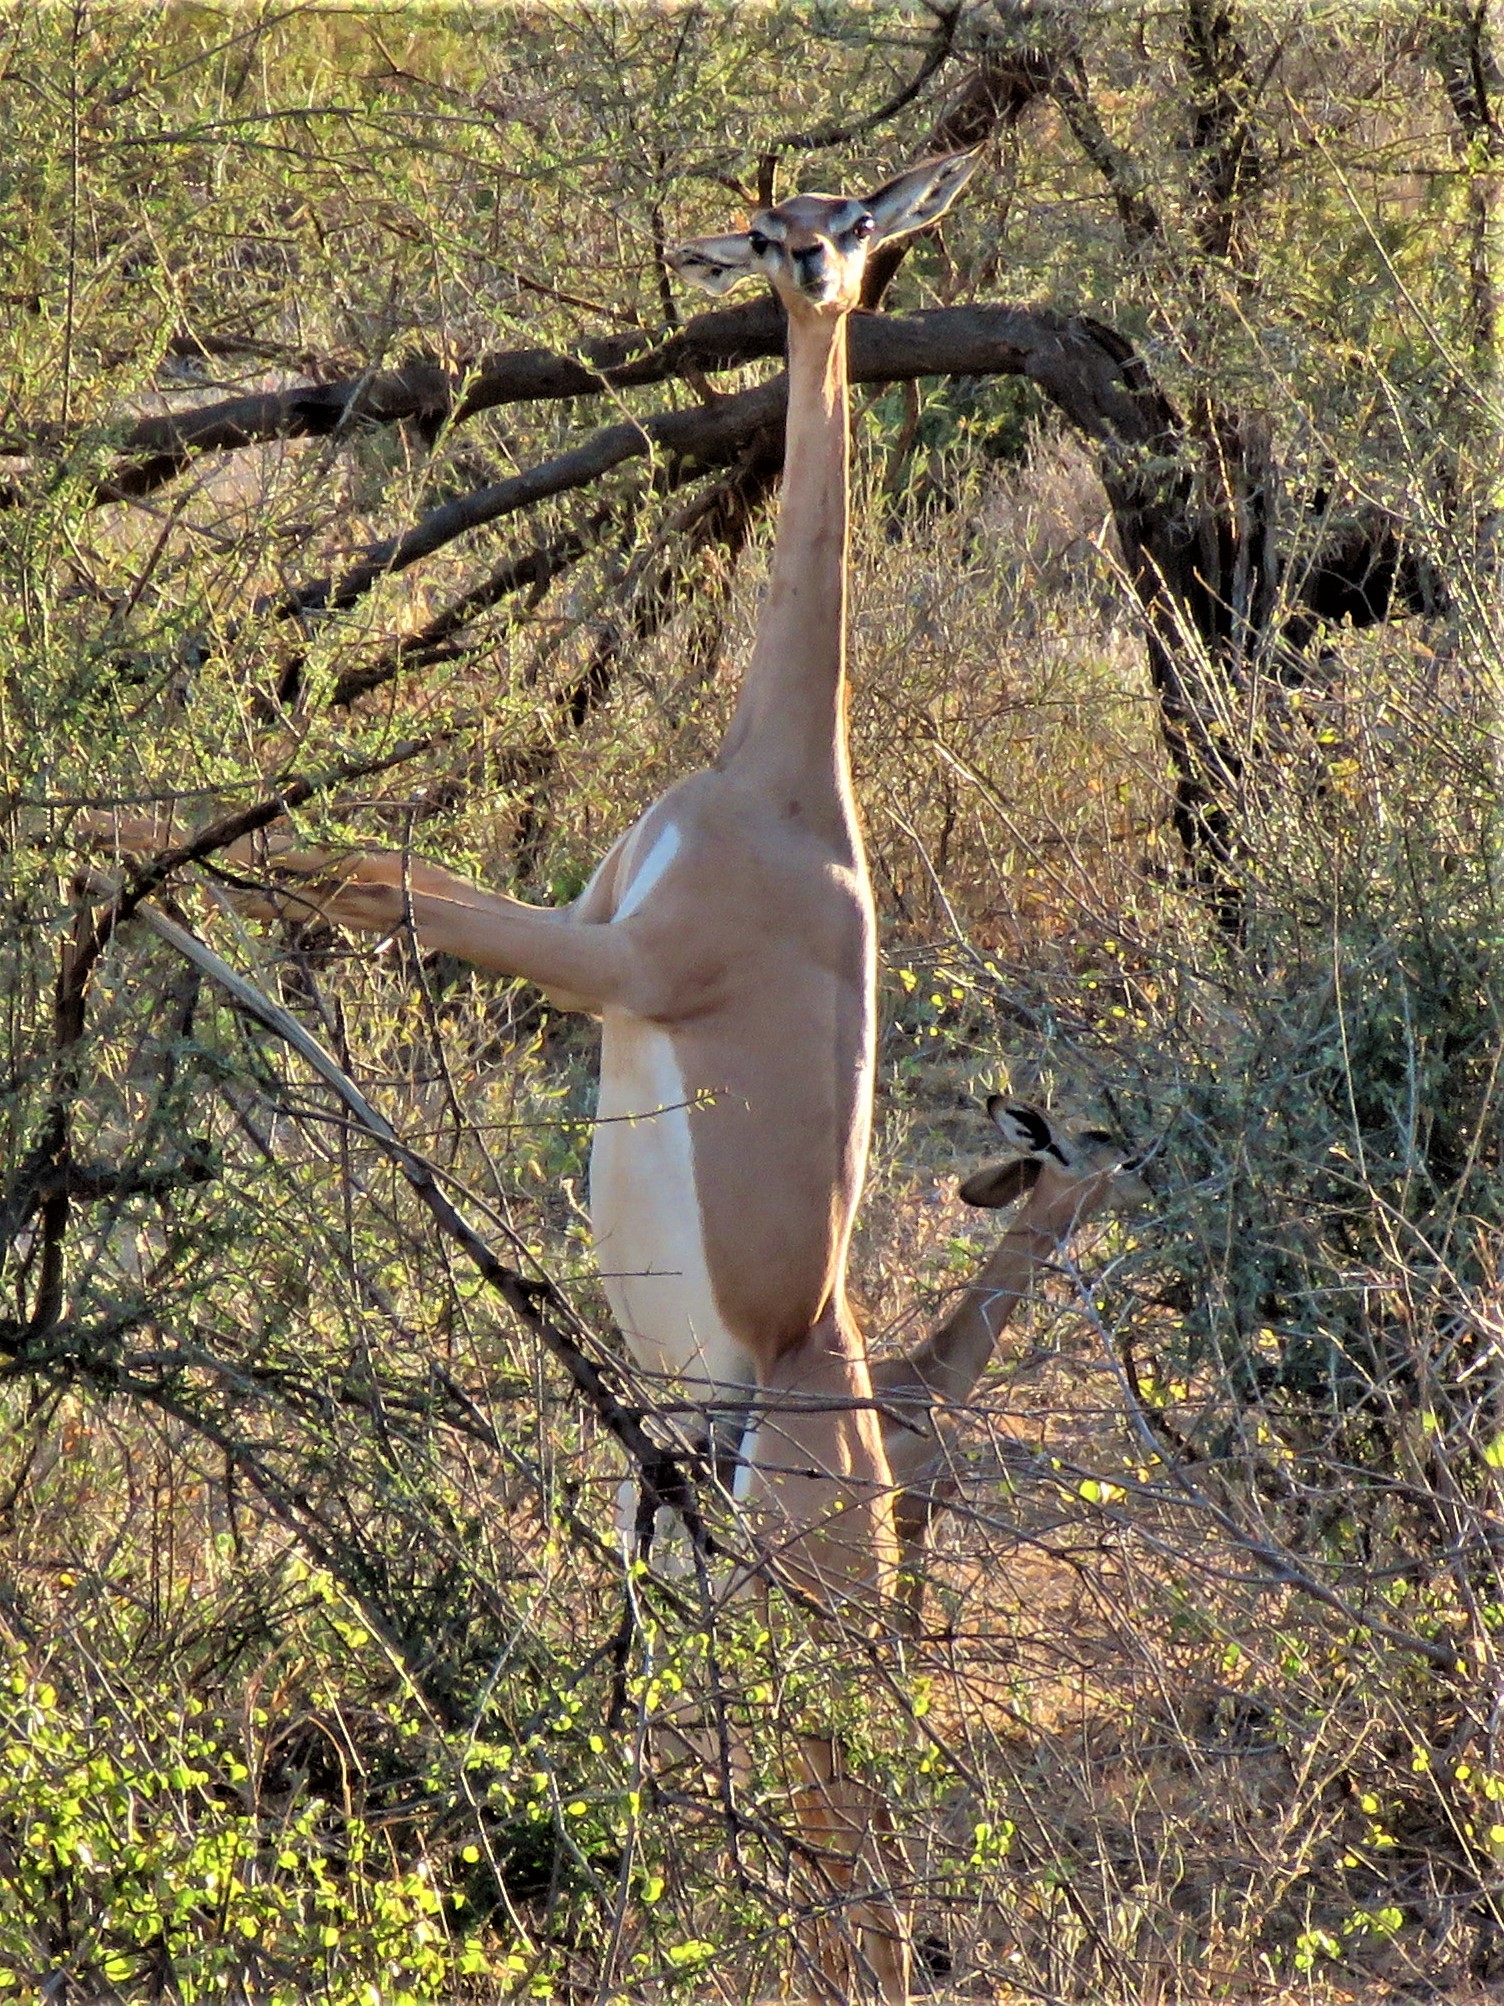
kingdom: Animalia
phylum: Chordata
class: Mammalia
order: Artiodactyla
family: Bovidae
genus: Litocranius
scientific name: Litocranius walleri
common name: Gerenuk
